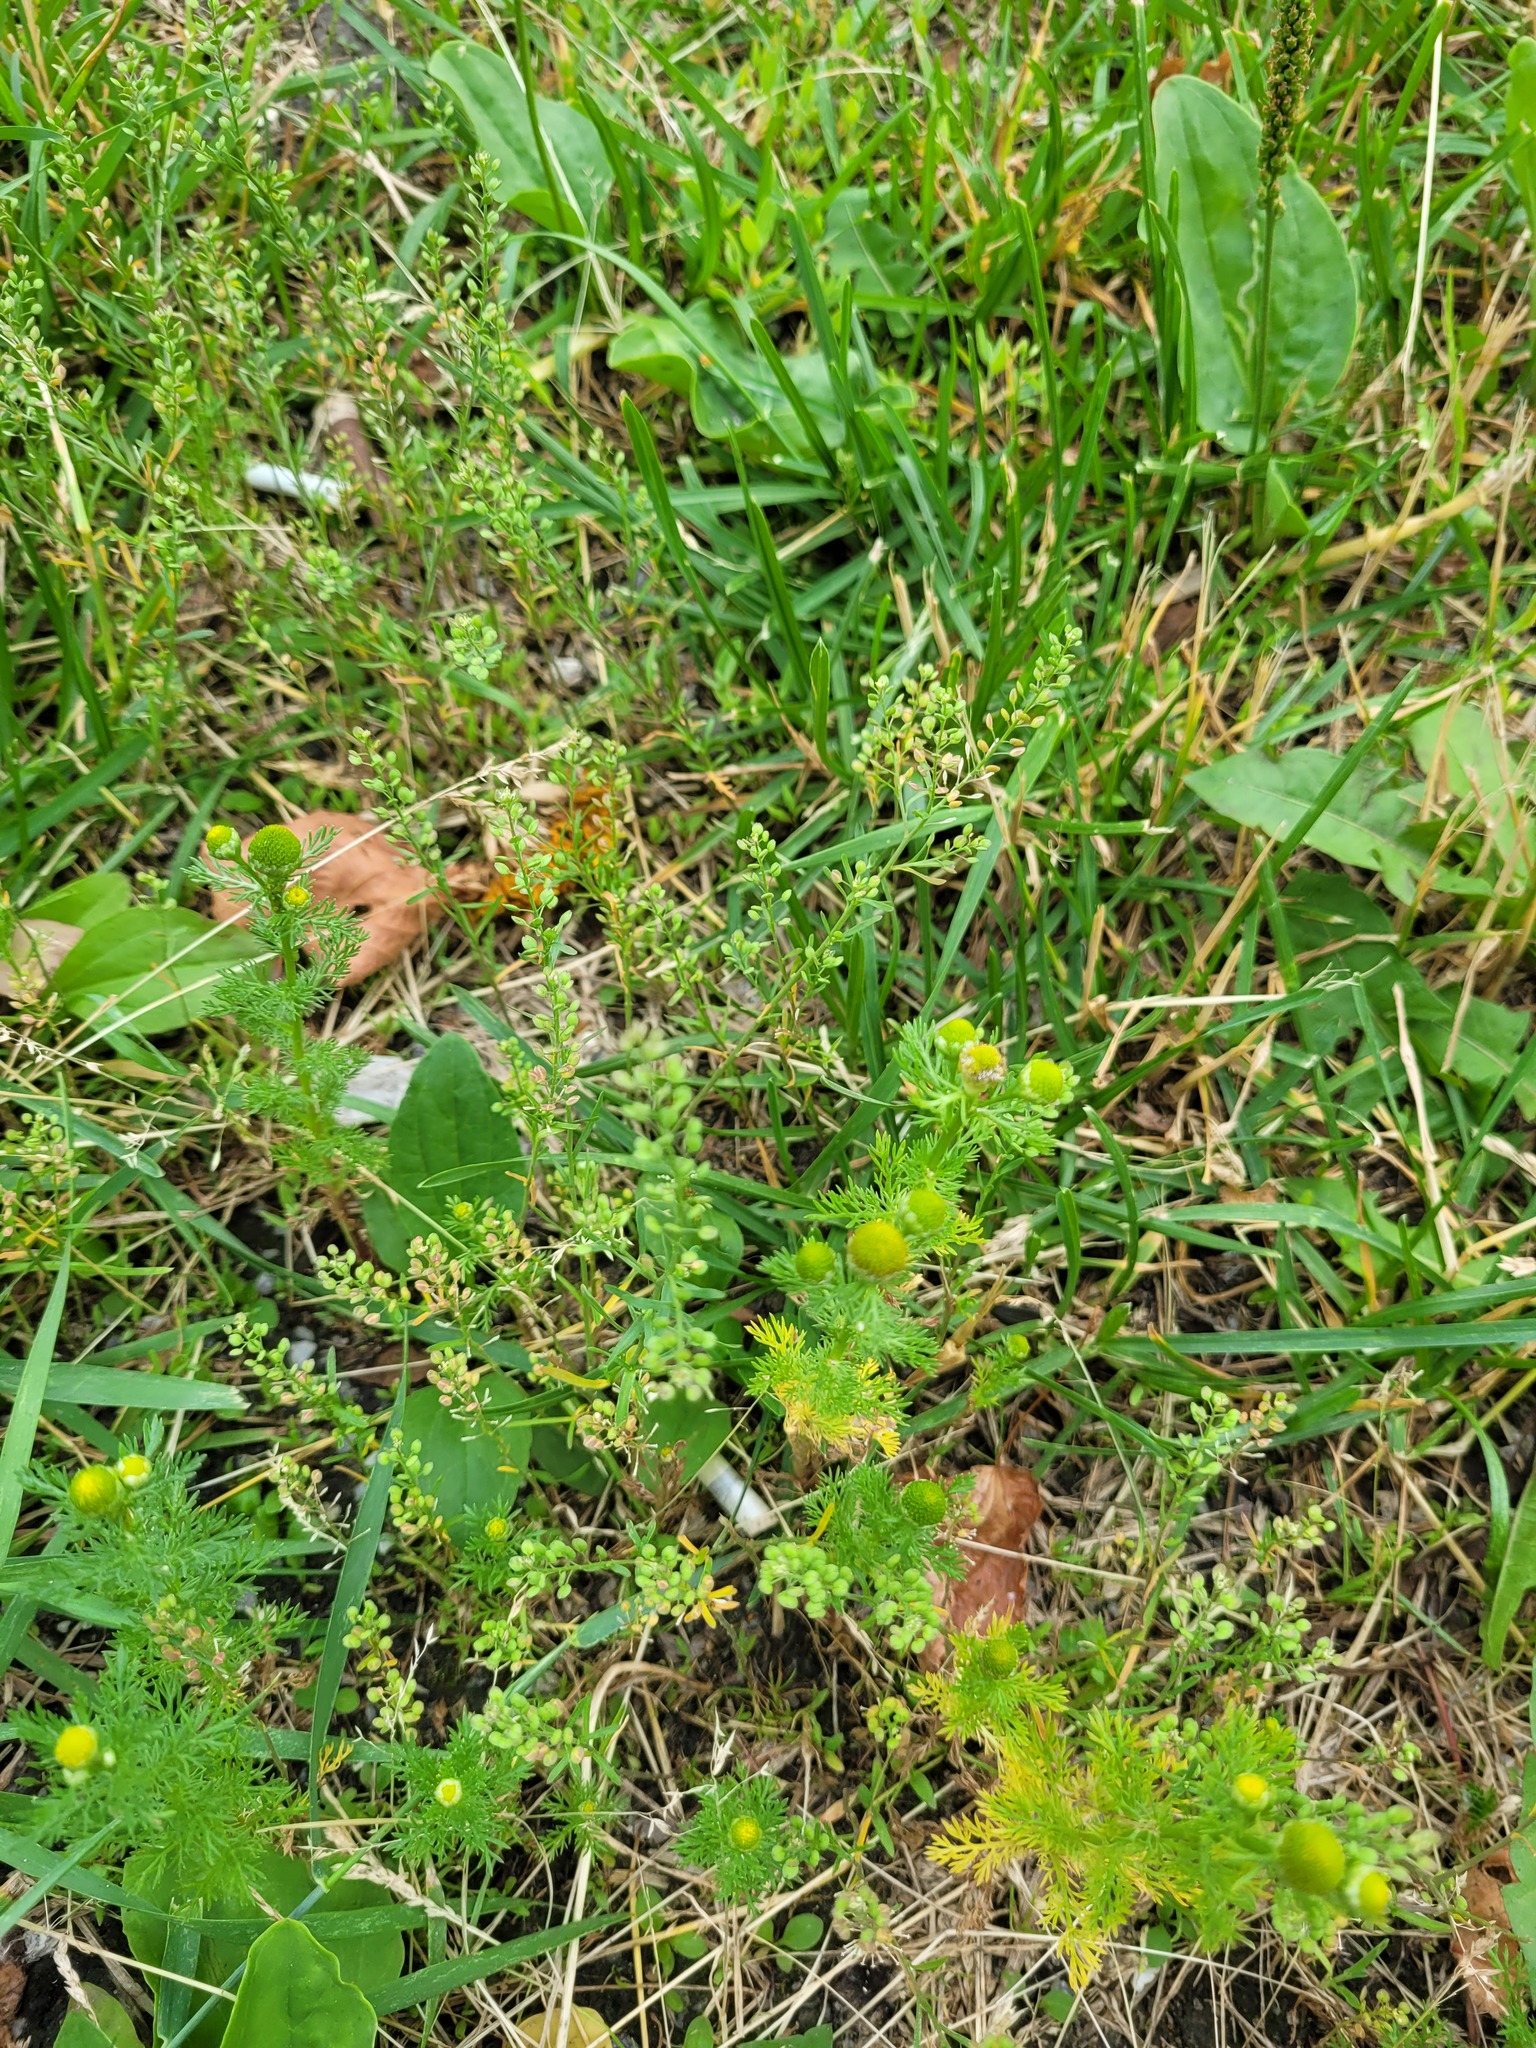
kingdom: Plantae
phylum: Tracheophyta
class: Magnoliopsida
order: Brassicales
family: Brassicaceae
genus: Lepidium
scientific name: Lepidium ruderale
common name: Narrow-leaved pepperwort
